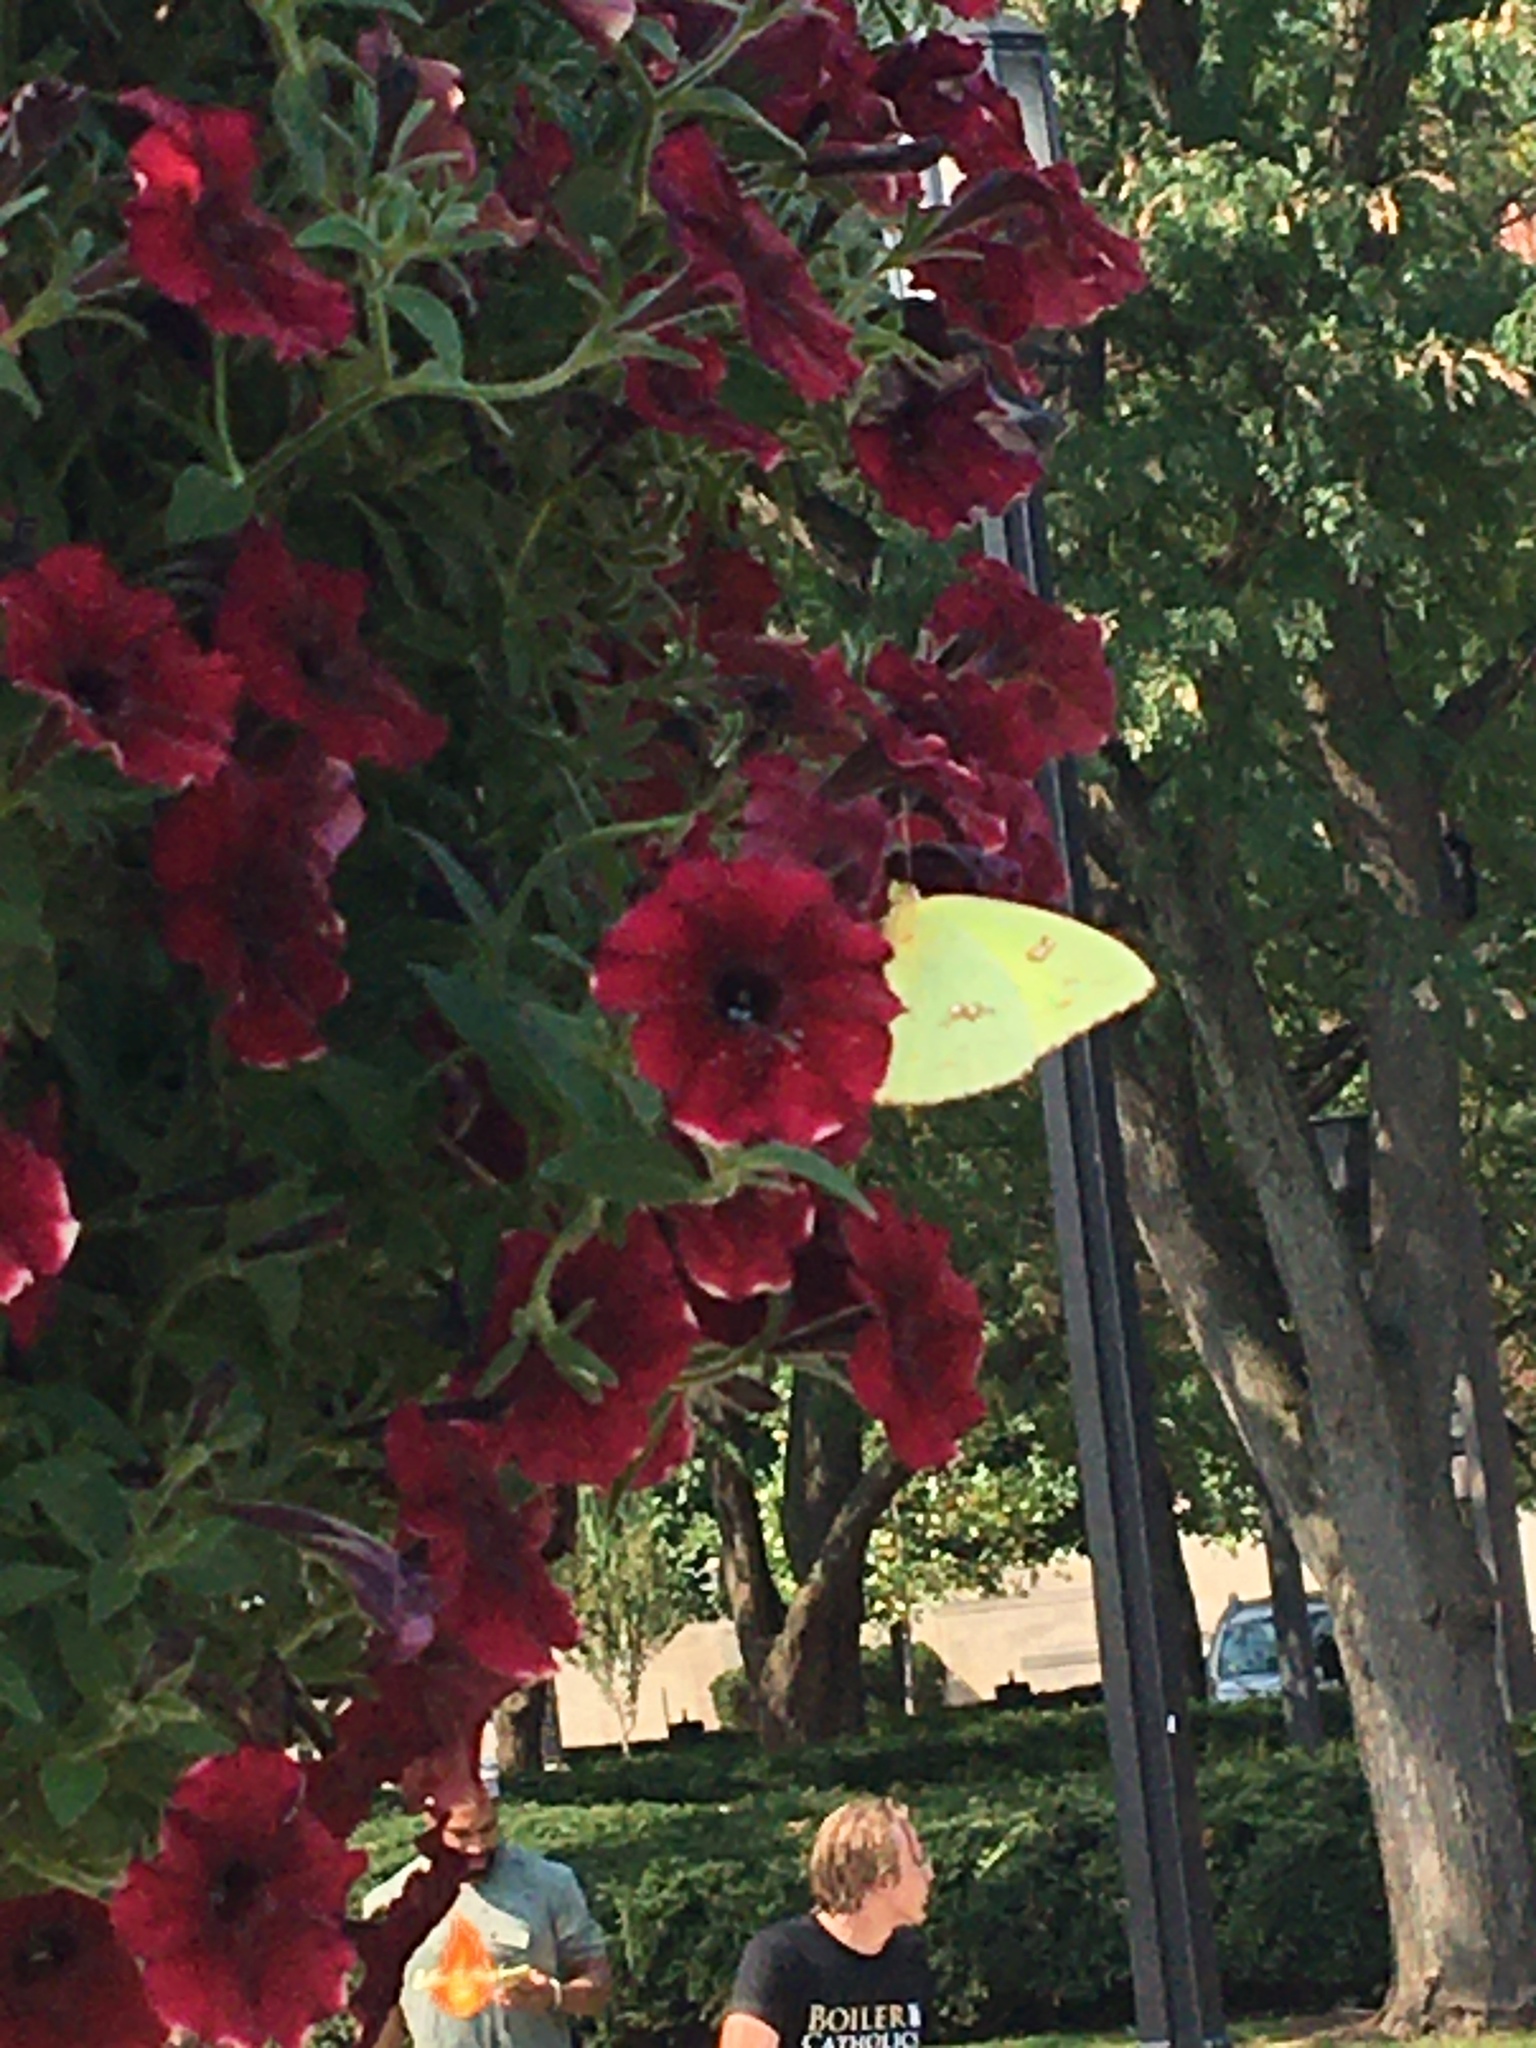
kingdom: Animalia
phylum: Arthropoda
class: Insecta
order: Lepidoptera
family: Pieridae
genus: Phoebis
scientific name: Phoebis sennae
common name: Cloudless sulphur
